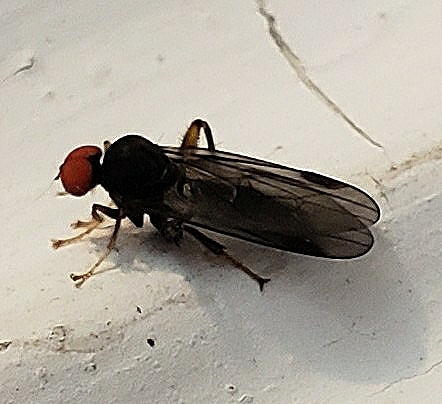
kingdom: Animalia
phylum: Arthropoda
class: Insecta
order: Diptera
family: Hybotidae
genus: Syneches
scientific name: Syneches thoracicus
